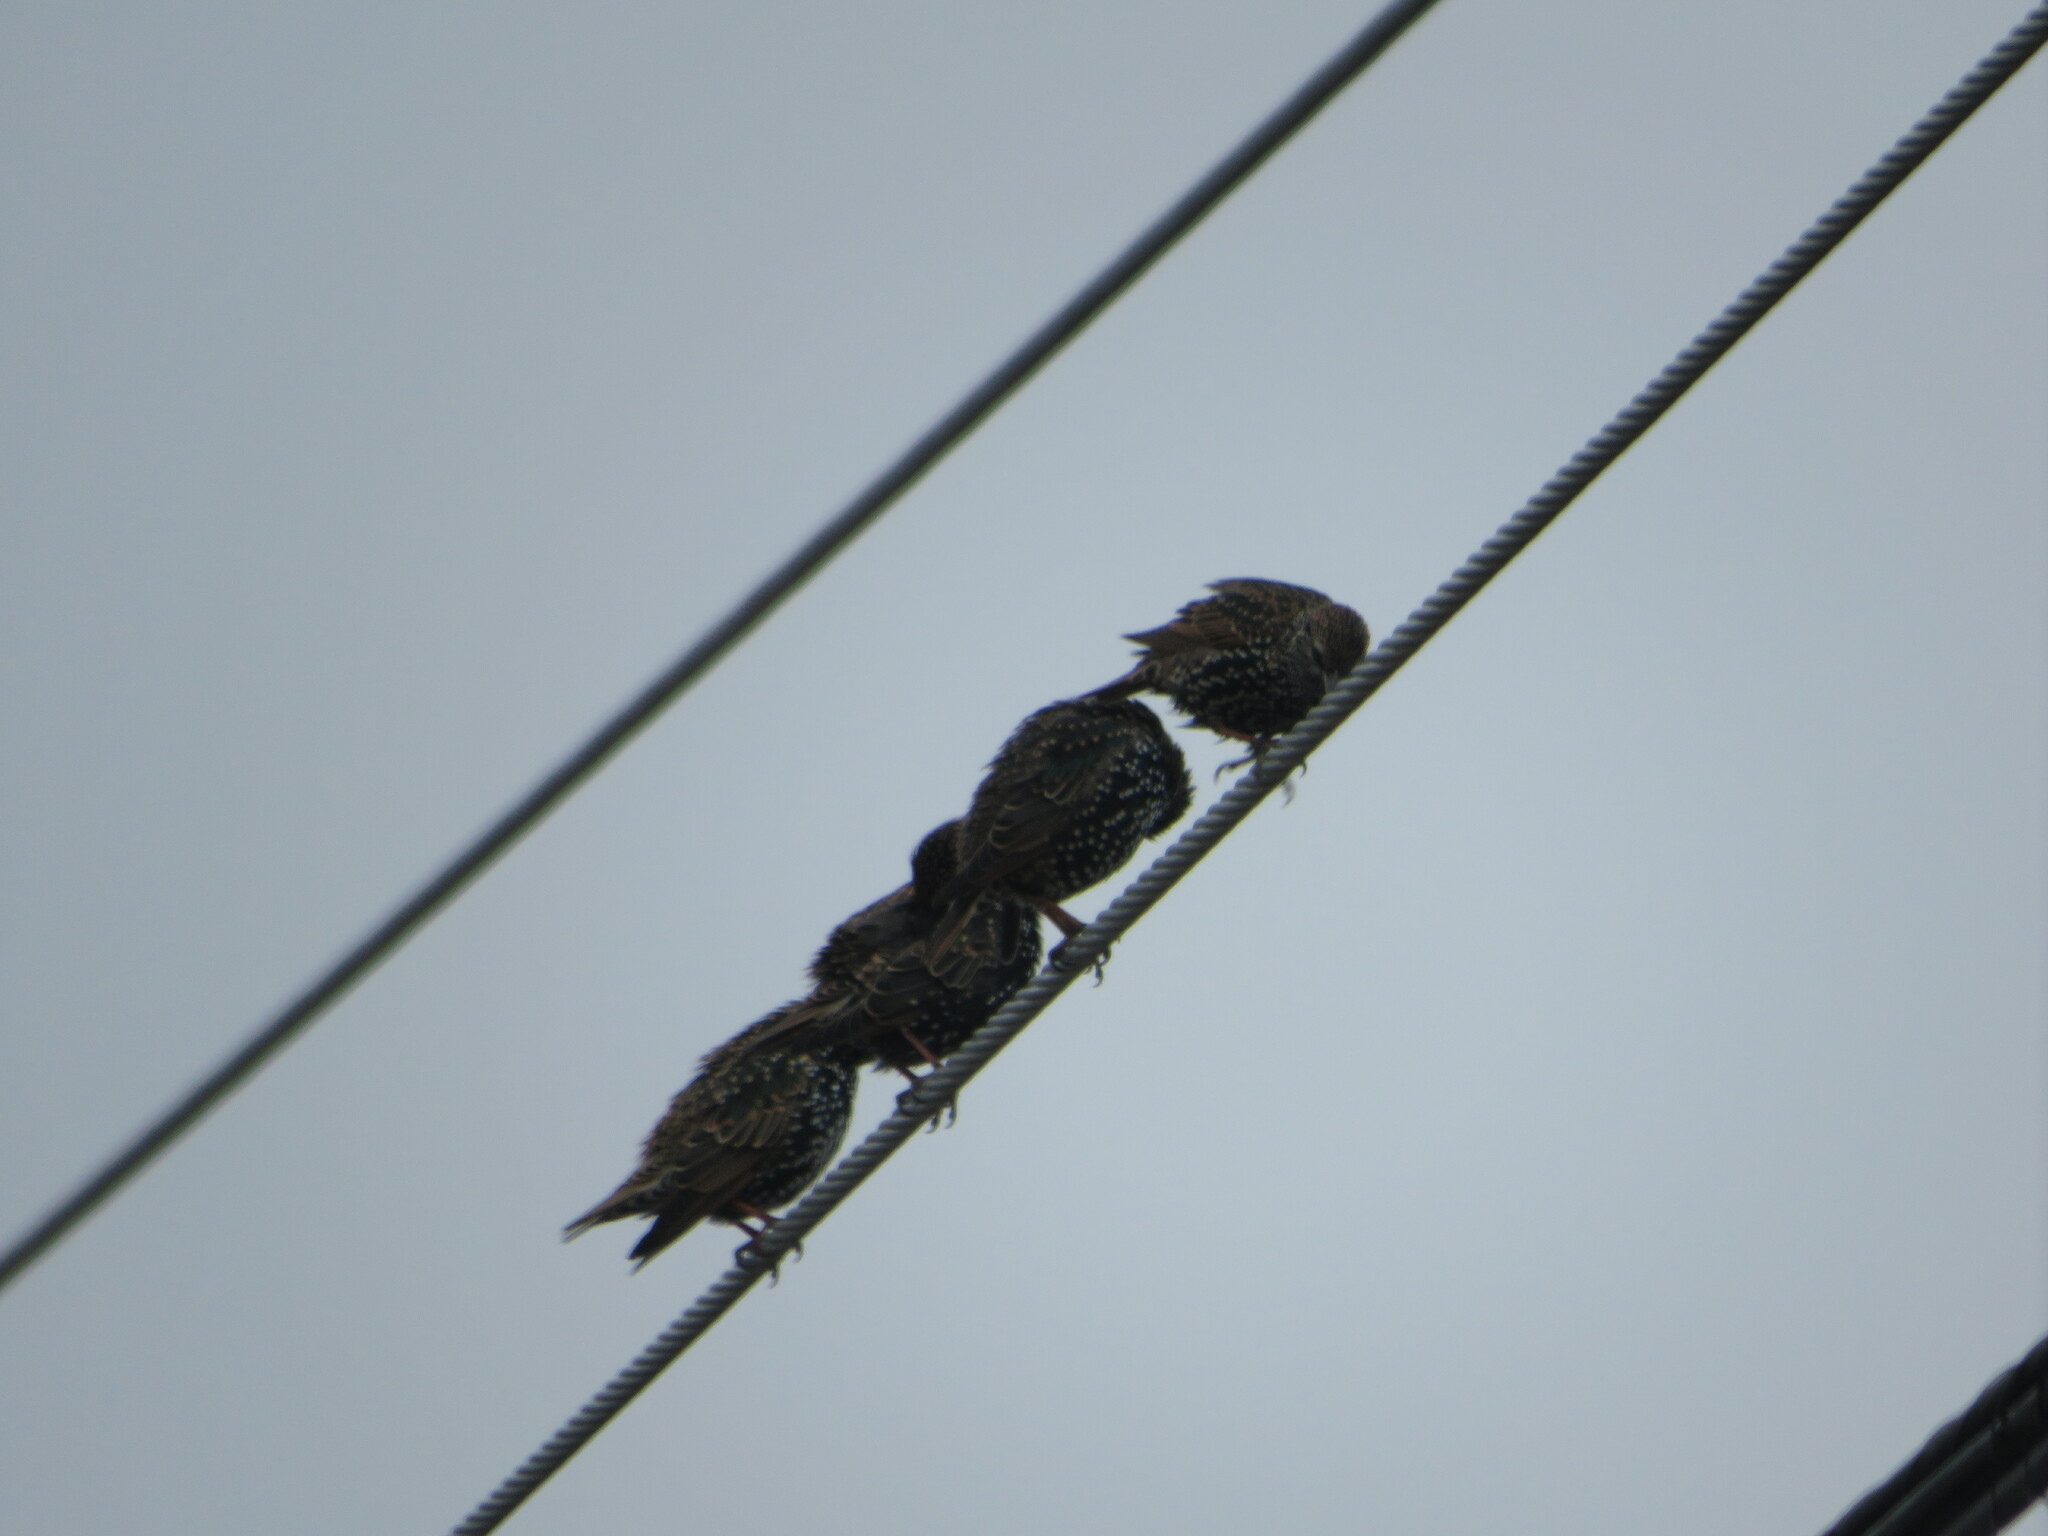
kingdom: Animalia
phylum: Chordata
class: Aves
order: Passeriformes
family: Sturnidae
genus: Sturnus
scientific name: Sturnus vulgaris
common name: Common starling
